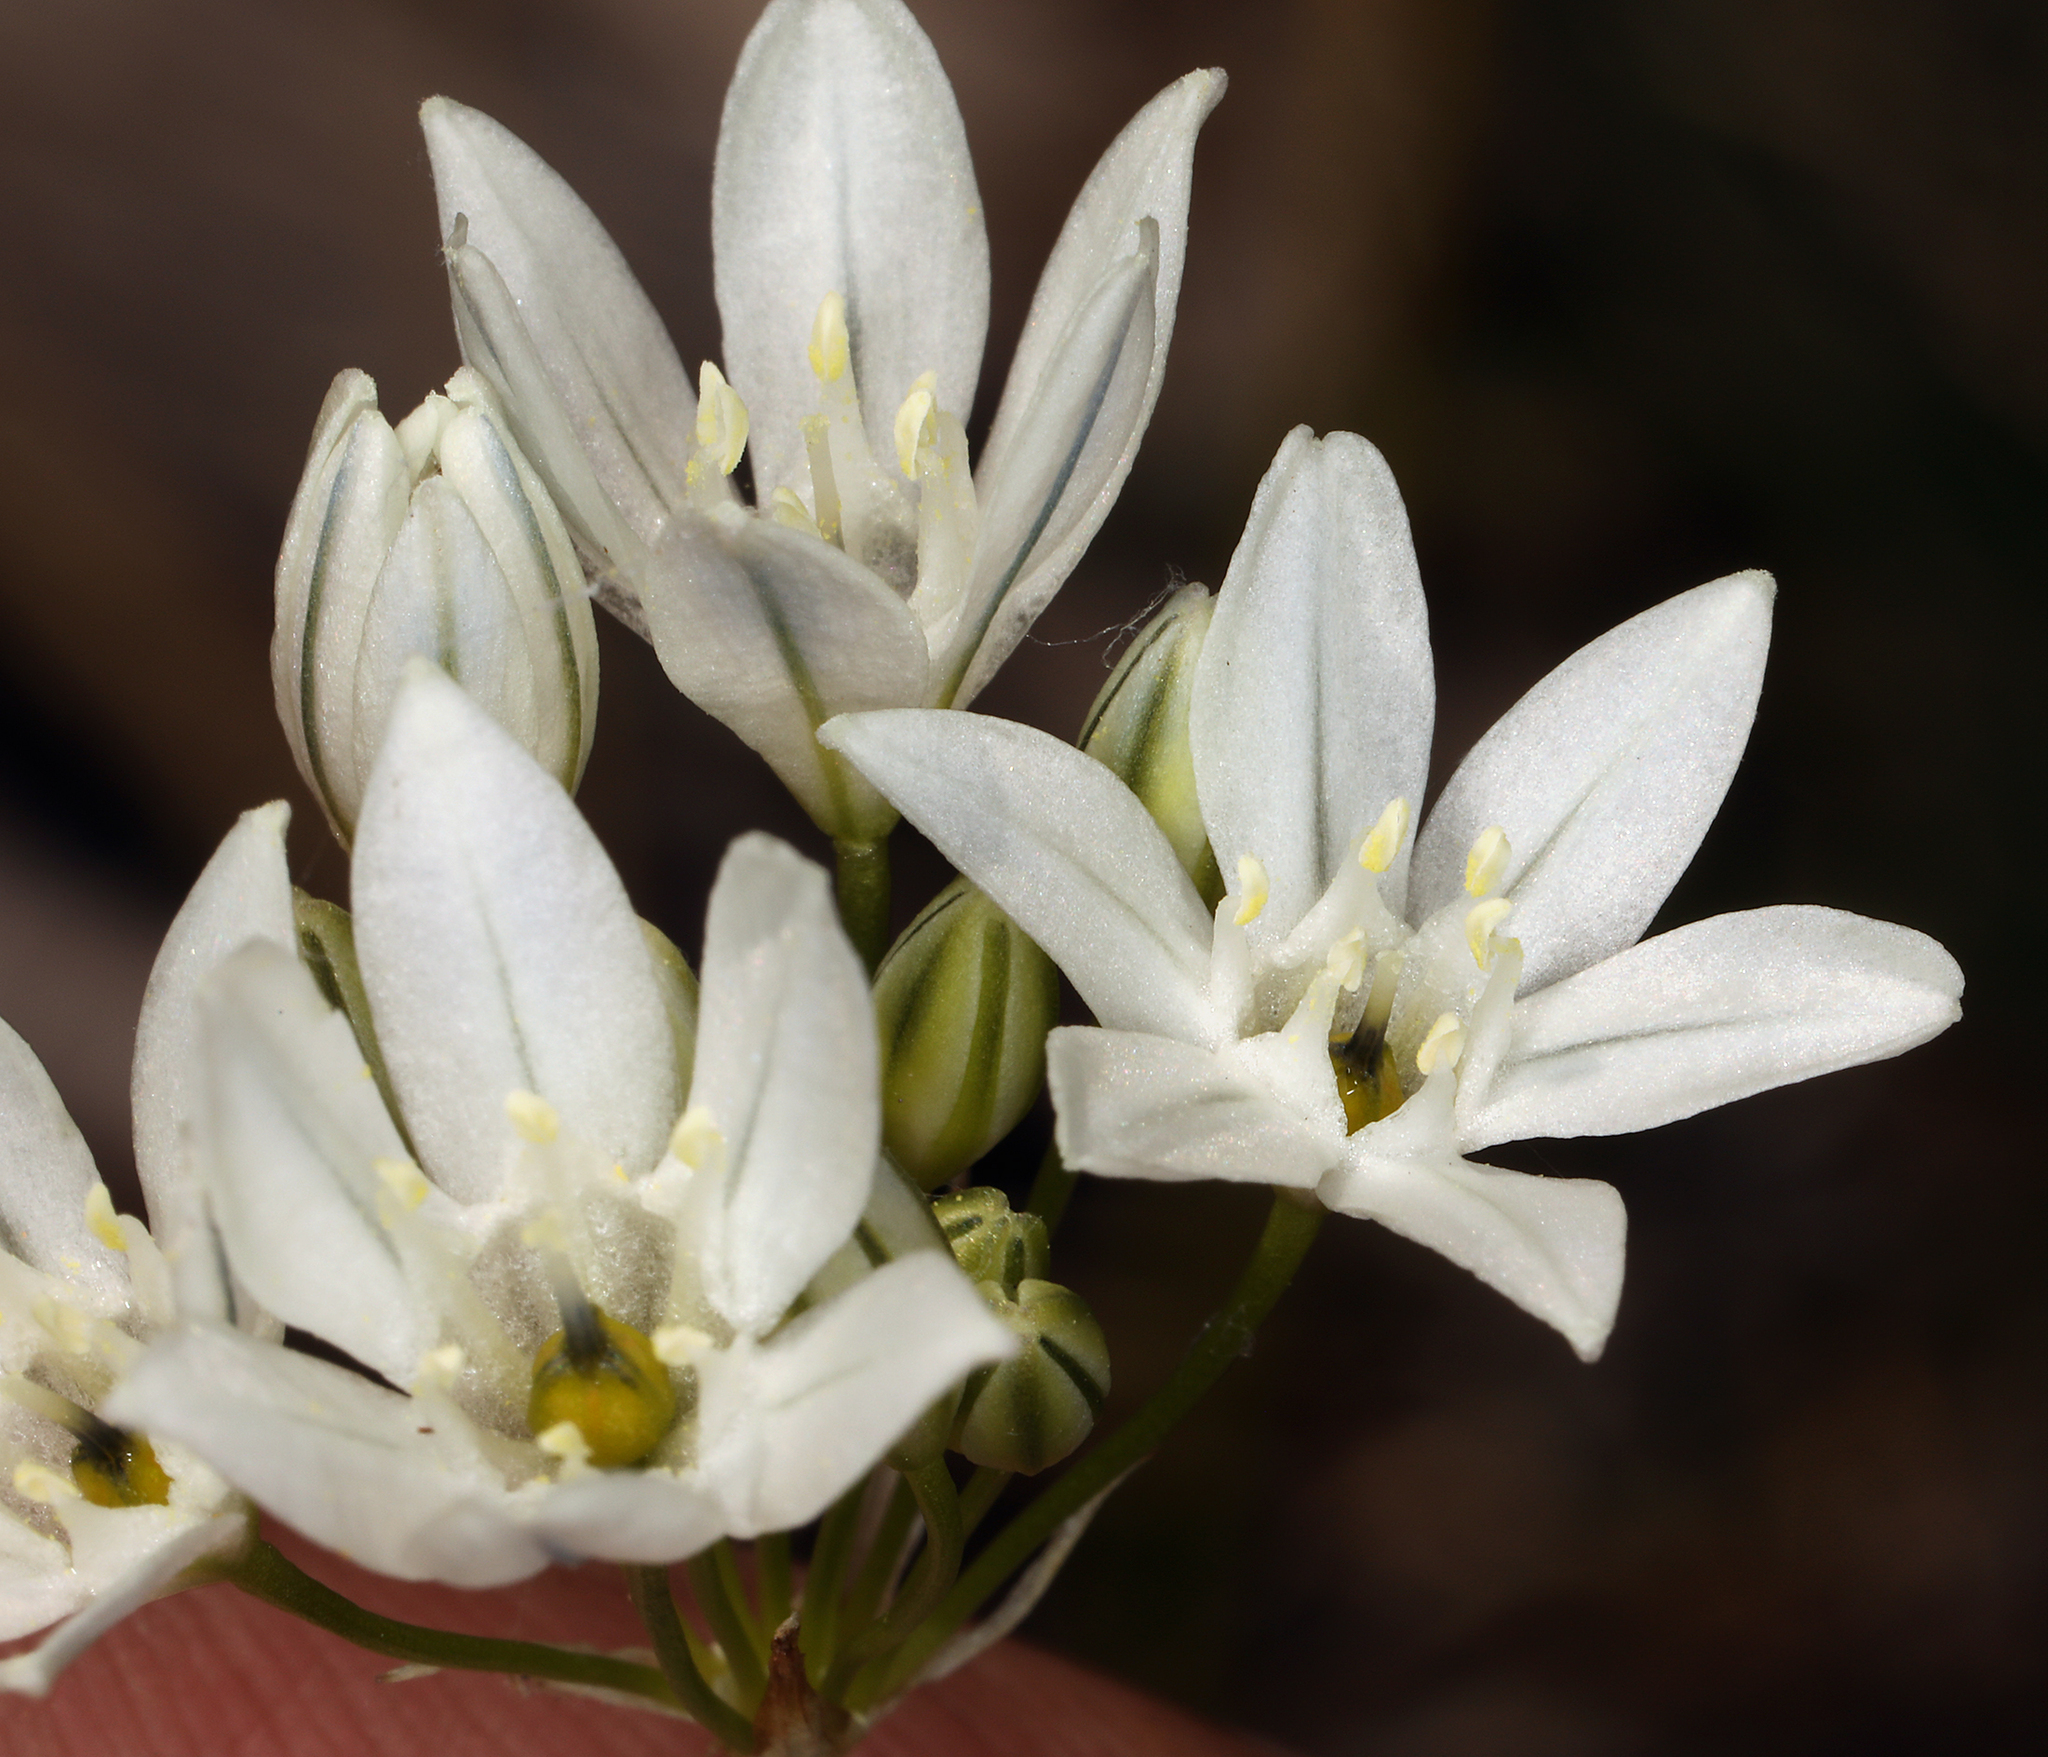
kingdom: Plantae
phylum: Tracheophyta
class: Liliopsida
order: Asparagales
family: Asparagaceae
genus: Triteleia
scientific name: Triteleia hyacinthina
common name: White brodiaea
